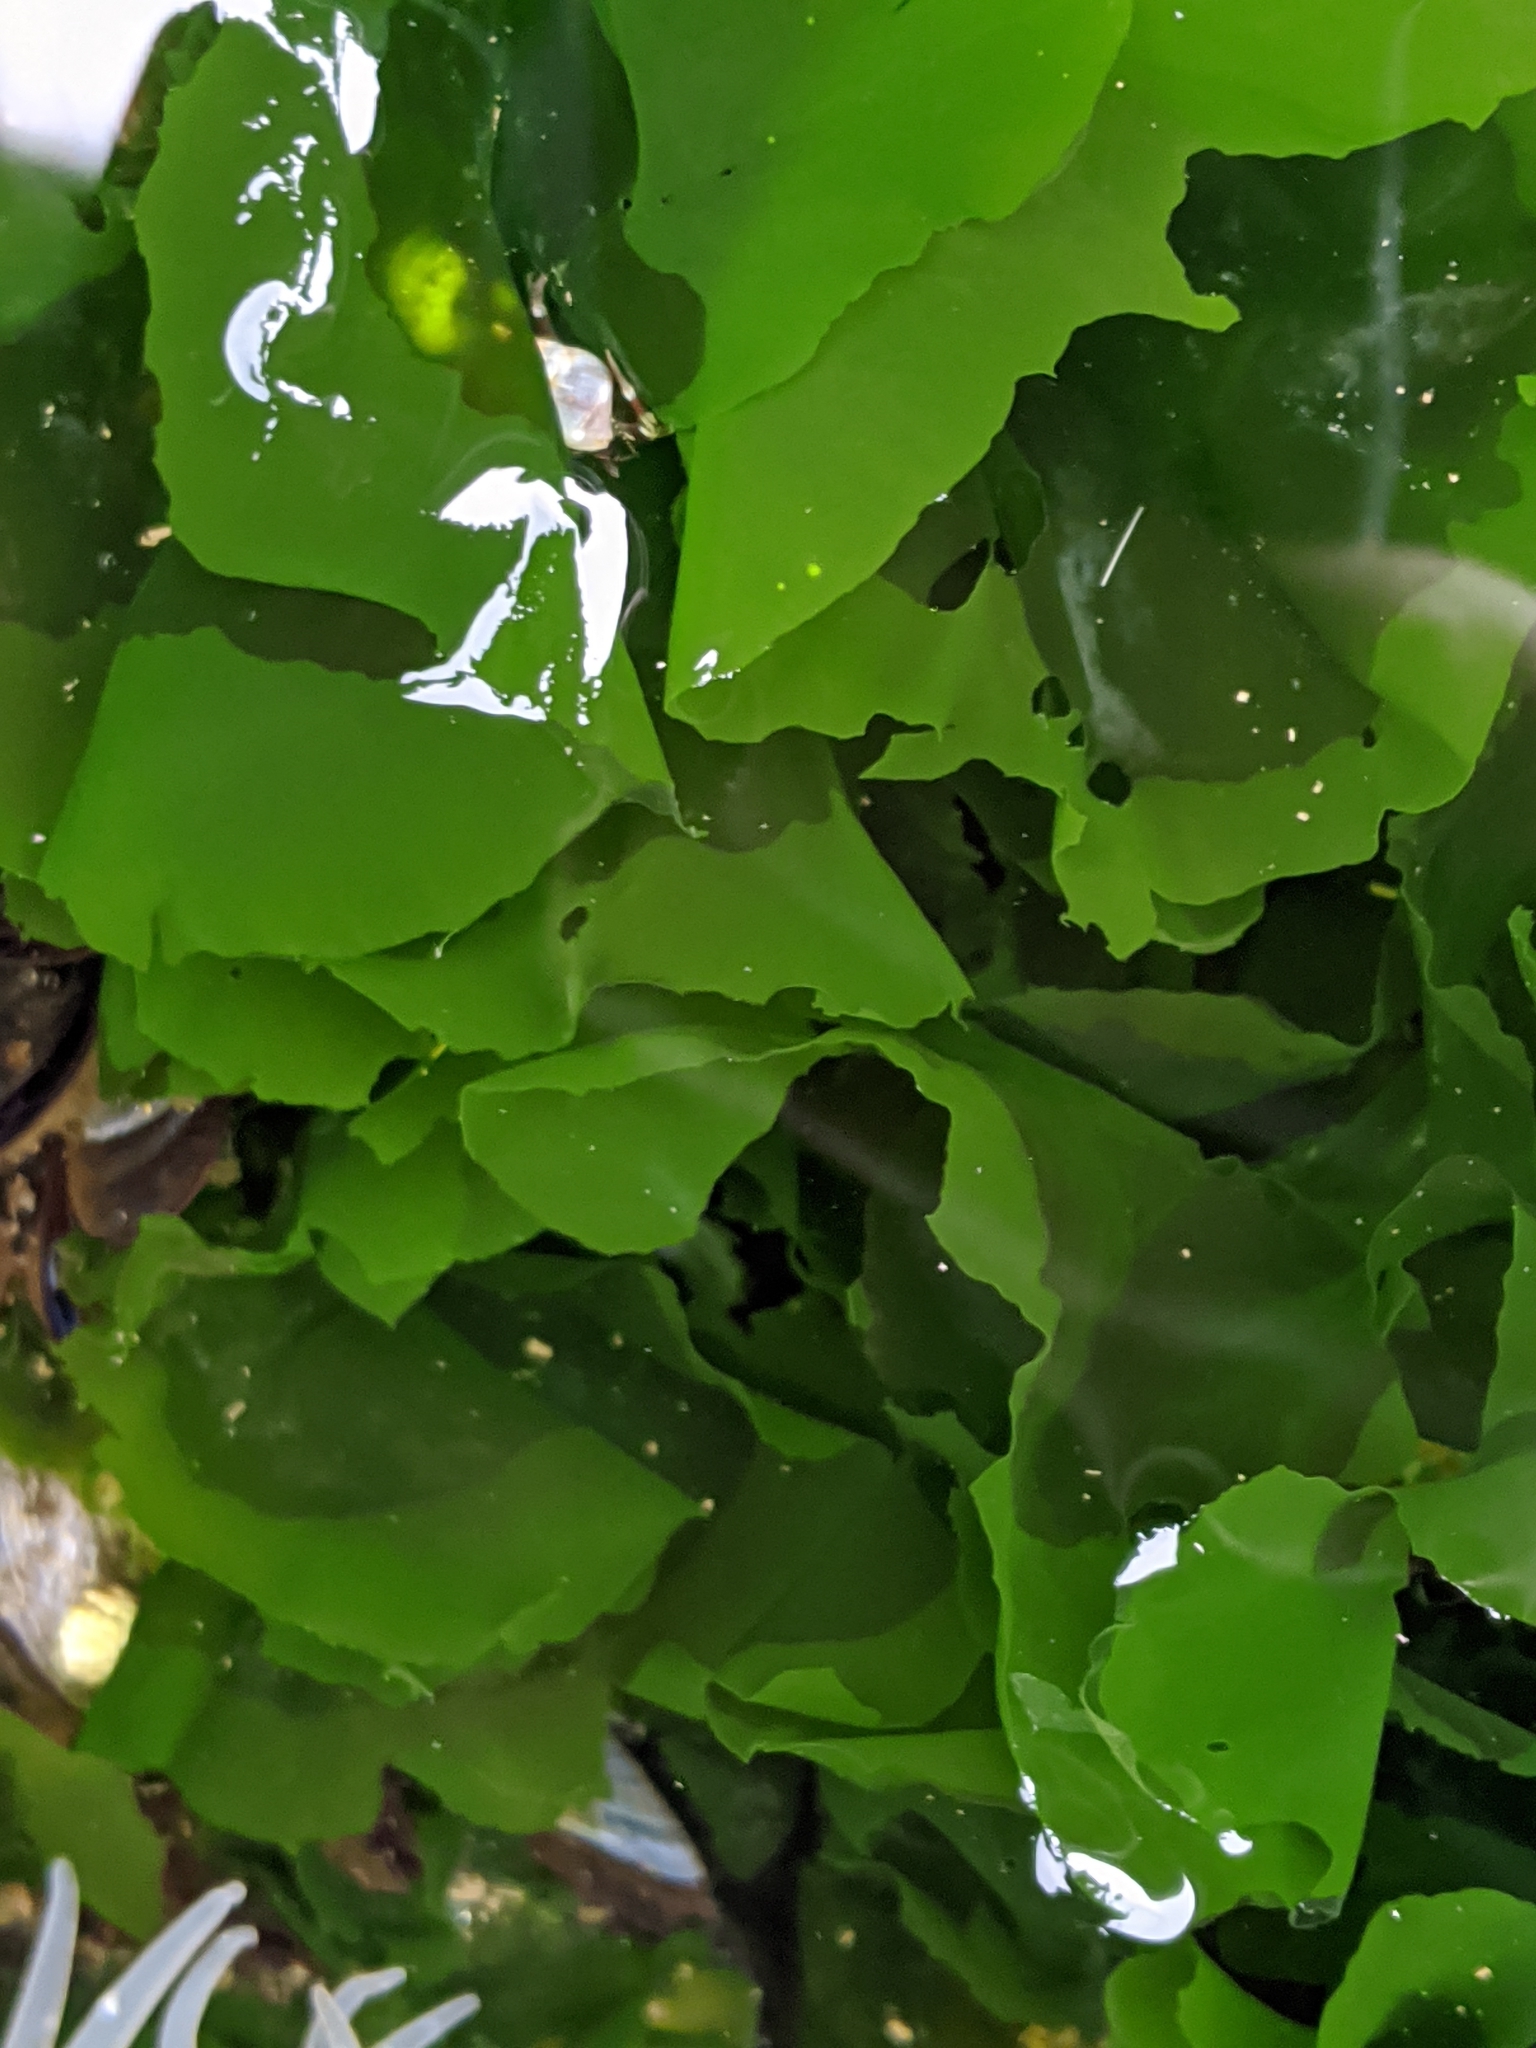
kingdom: Plantae
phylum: Chlorophyta
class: Ulvophyceae
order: Ulvales
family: Ulvaceae
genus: Ulva
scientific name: Ulva lactuca
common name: Sea lettuce
